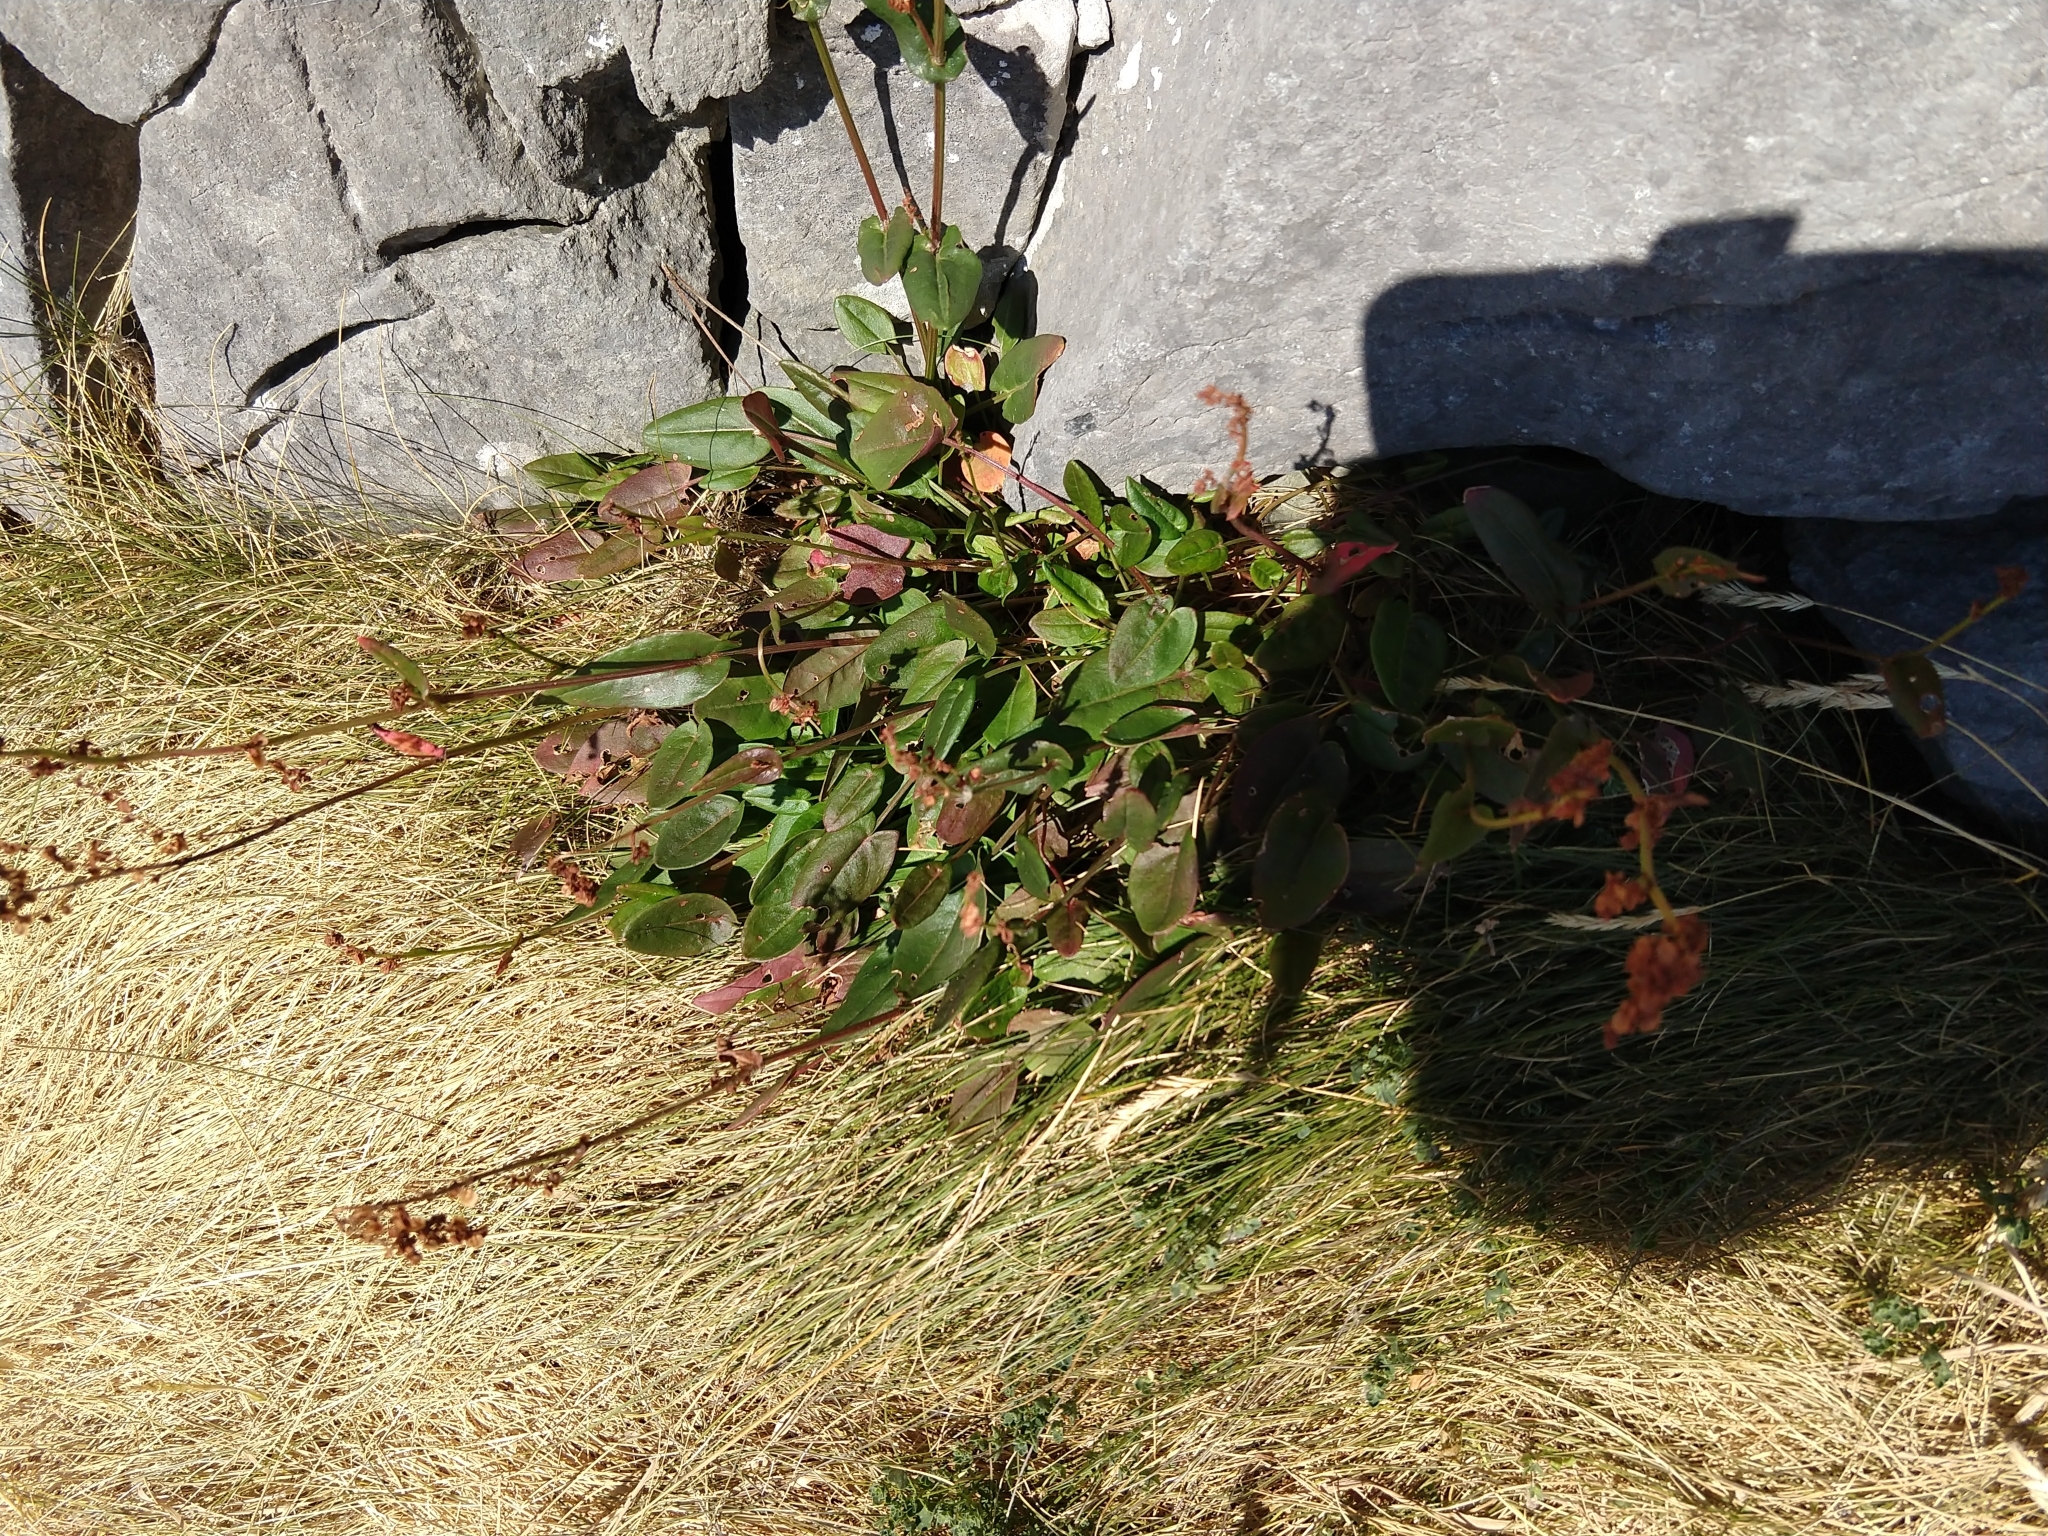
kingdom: Plantae
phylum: Tracheophyta
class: Magnoliopsida
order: Caryophyllales
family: Polygonaceae
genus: Rumex
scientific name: Rumex acetosa
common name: Garden sorrel
